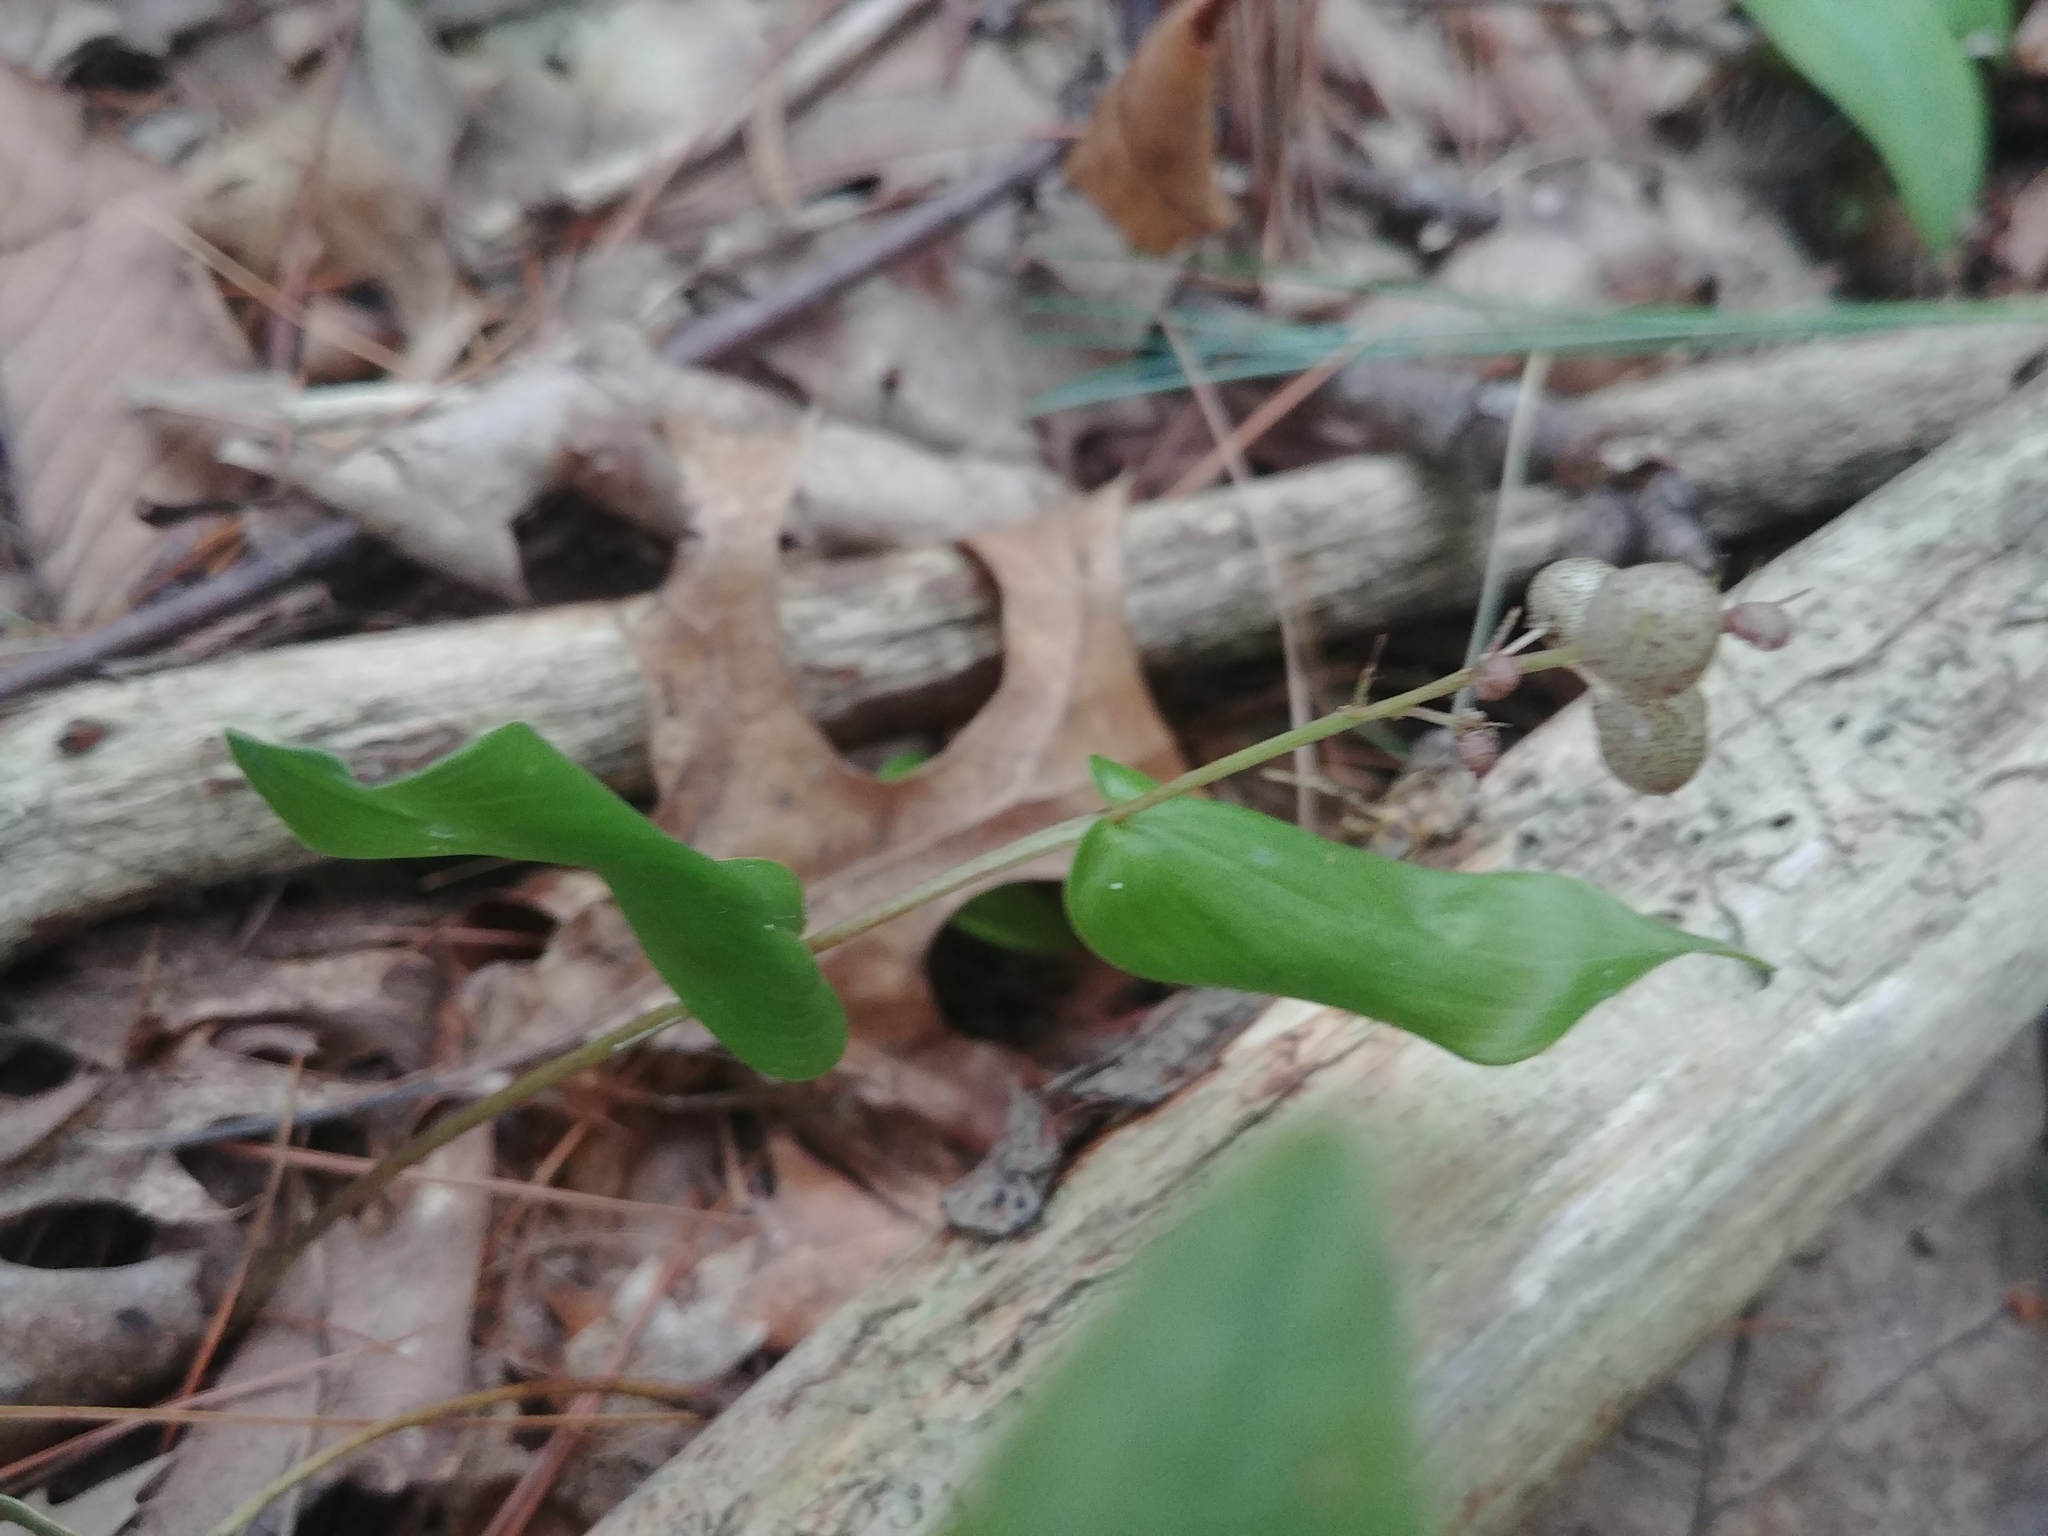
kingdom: Plantae
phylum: Tracheophyta
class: Liliopsida
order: Asparagales
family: Asparagaceae
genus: Maianthemum
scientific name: Maianthemum canadense
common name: False lily-of-the-valley
